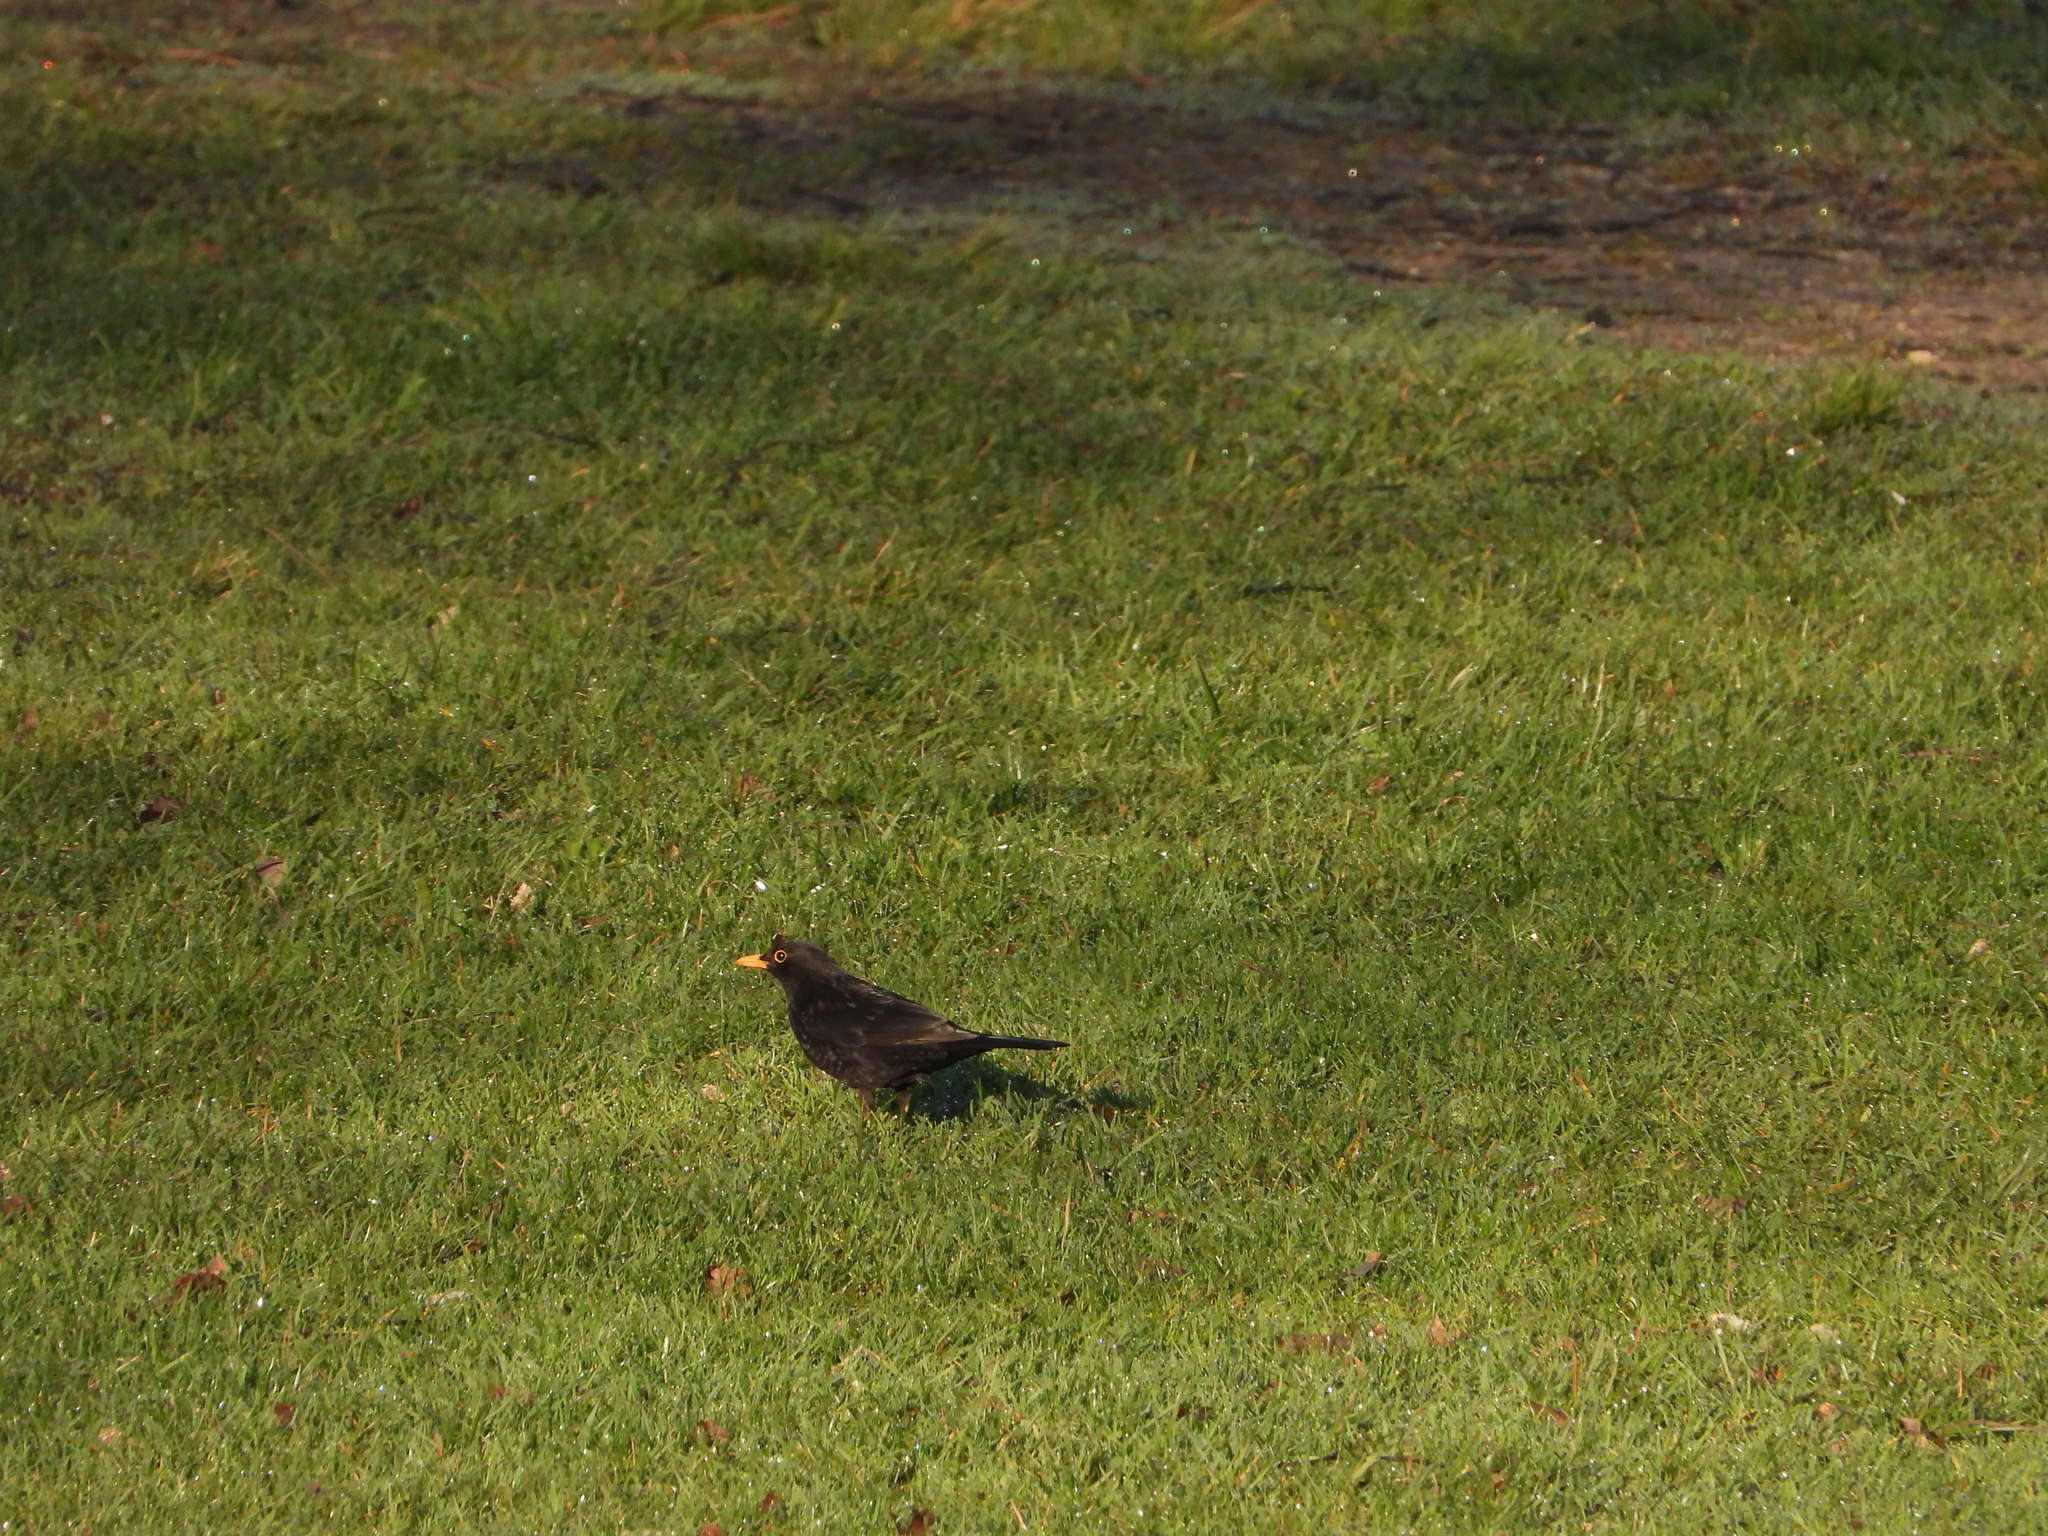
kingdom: Animalia
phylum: Chordata
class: Aves
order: Passeriformes
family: Turdidae
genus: Turdus
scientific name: Turdus merula
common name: Common blackbird
